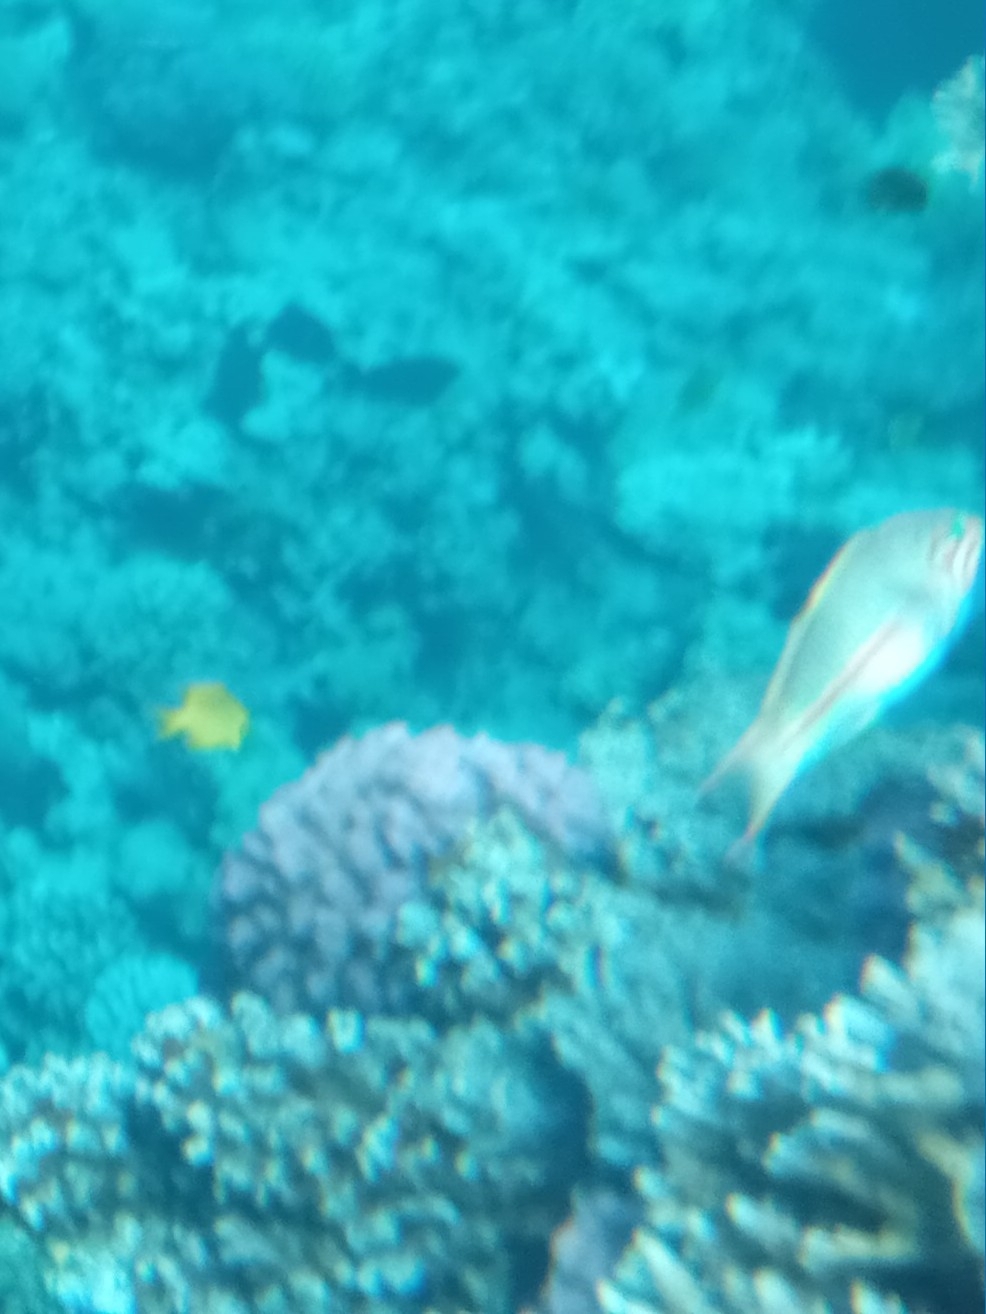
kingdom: Animalia
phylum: Chordata
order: Perciformes
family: Labridae
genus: Thalassoma
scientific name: Thalassoma rueppellii
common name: Klunzinger's wrasse
